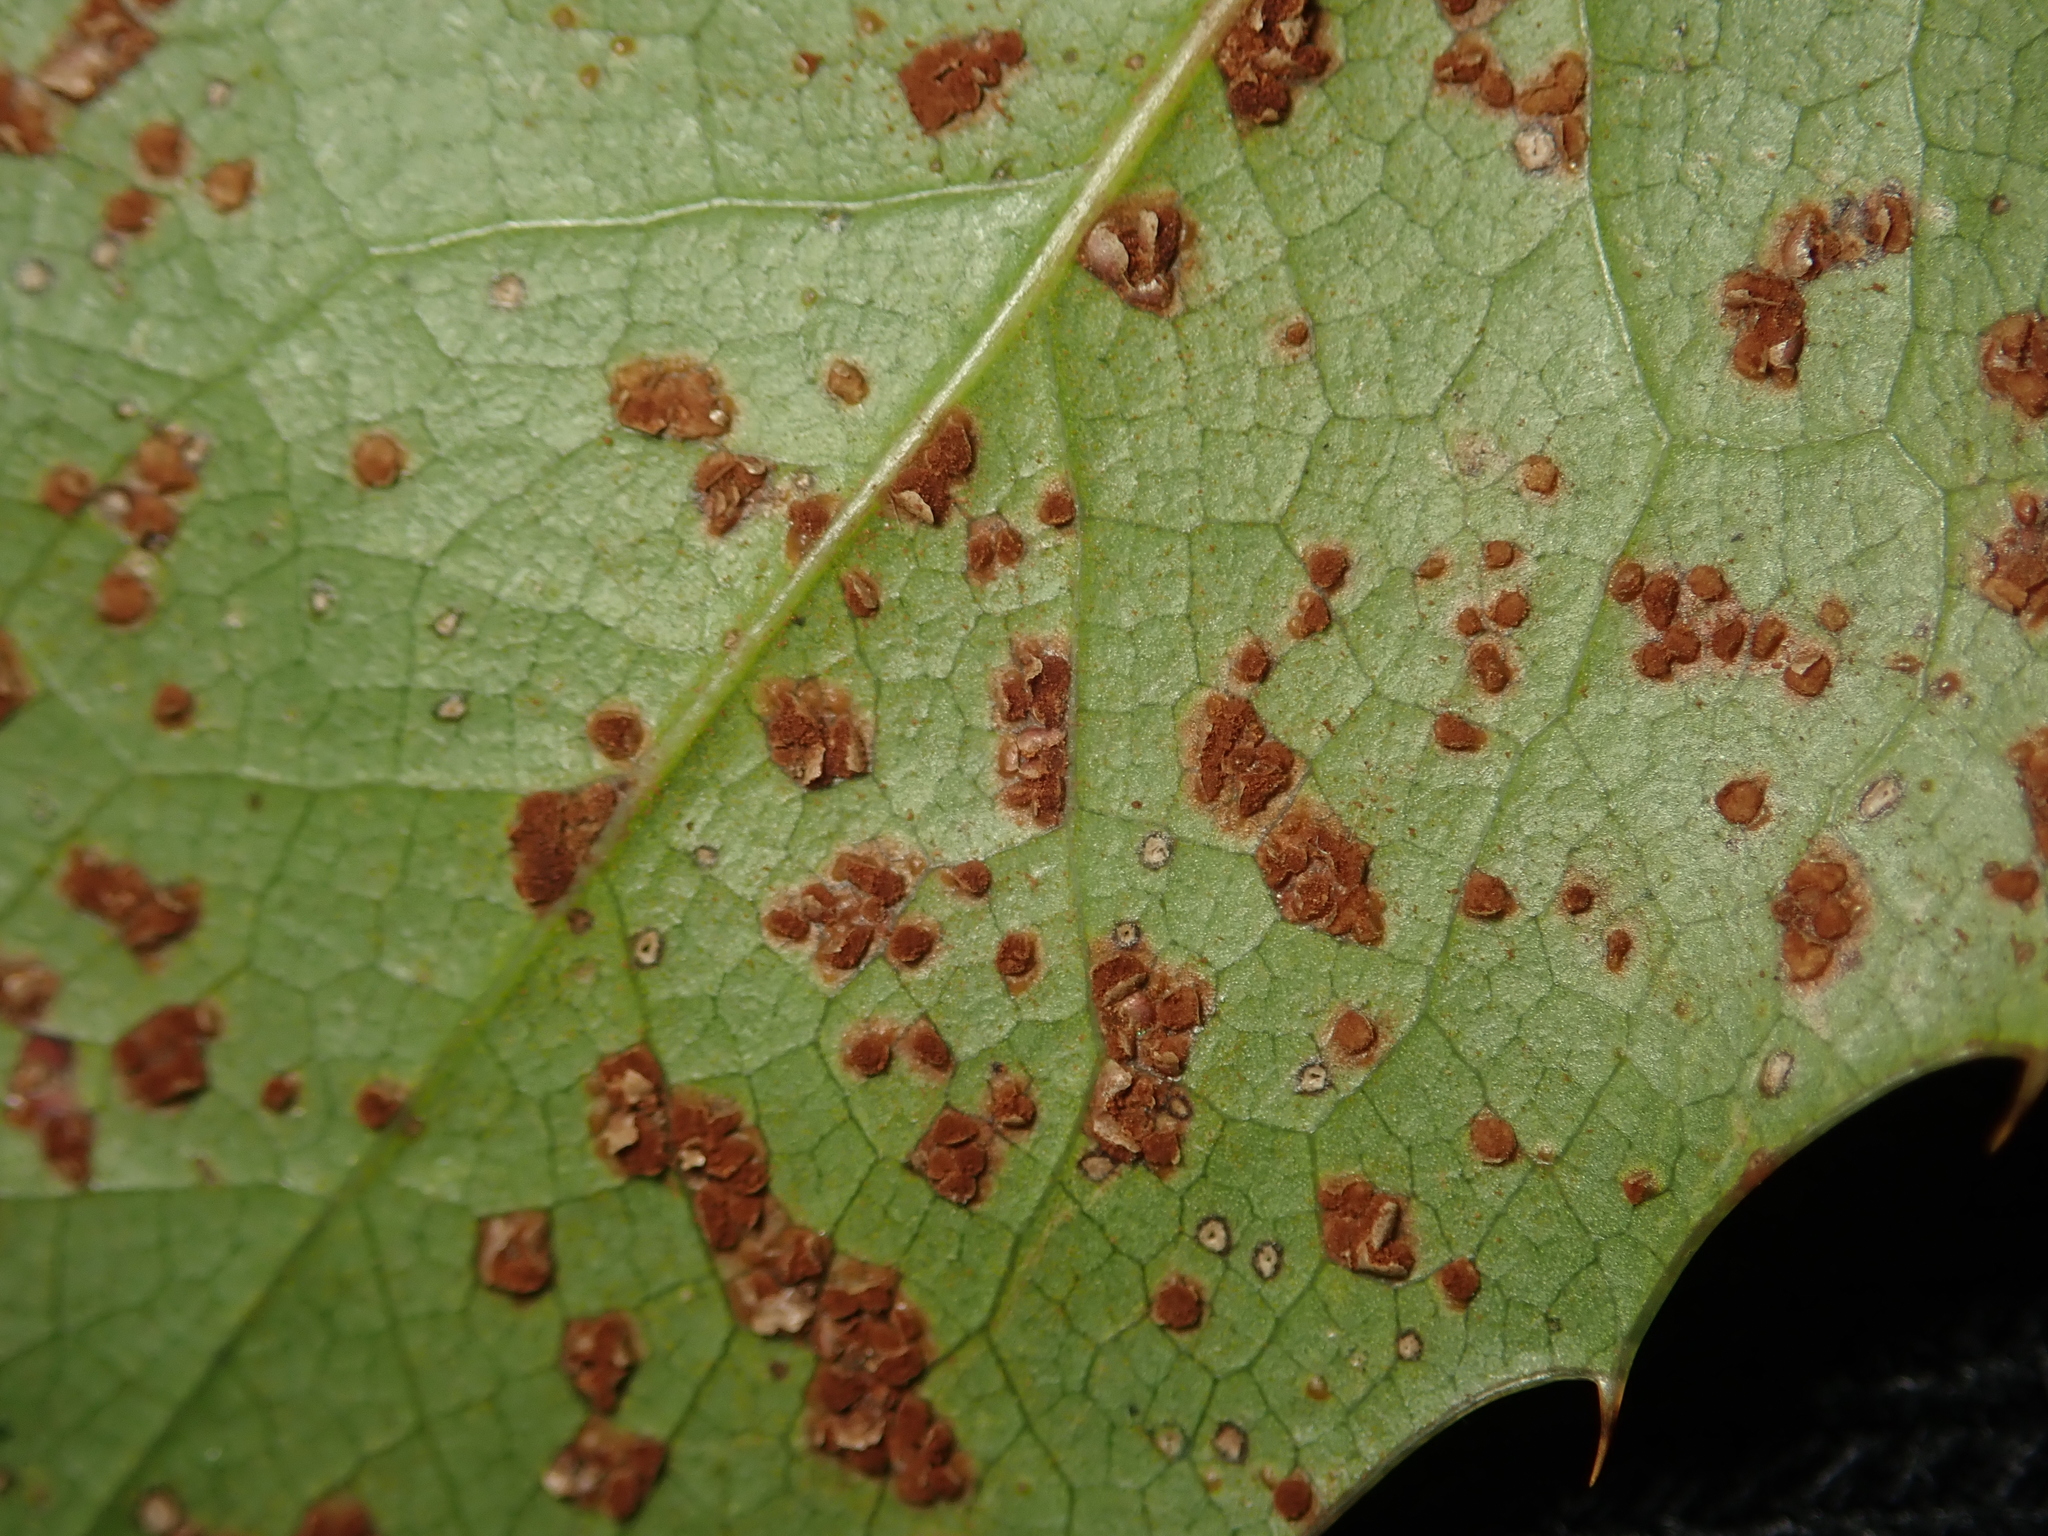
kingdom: Fungi
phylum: Basidiomycota
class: Pucciniomycetes
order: Pucciniales
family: Pucciniaceae
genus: Cumminsiella
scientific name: Cumminsiella mirabilissima
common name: Mahonia rust
